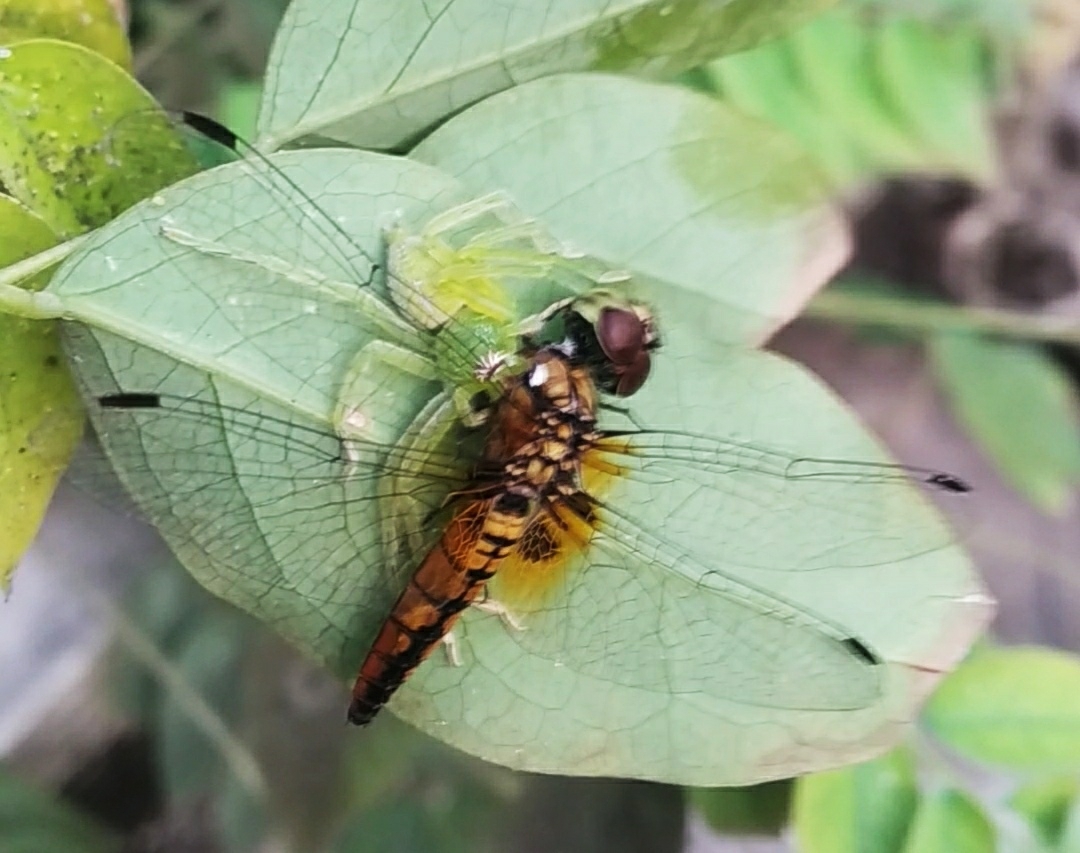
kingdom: Animalia
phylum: Arthropoda
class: Insecta
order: Odonata
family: Libellulidae
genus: Aethriamanta
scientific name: Aethriamanta brevipennis
